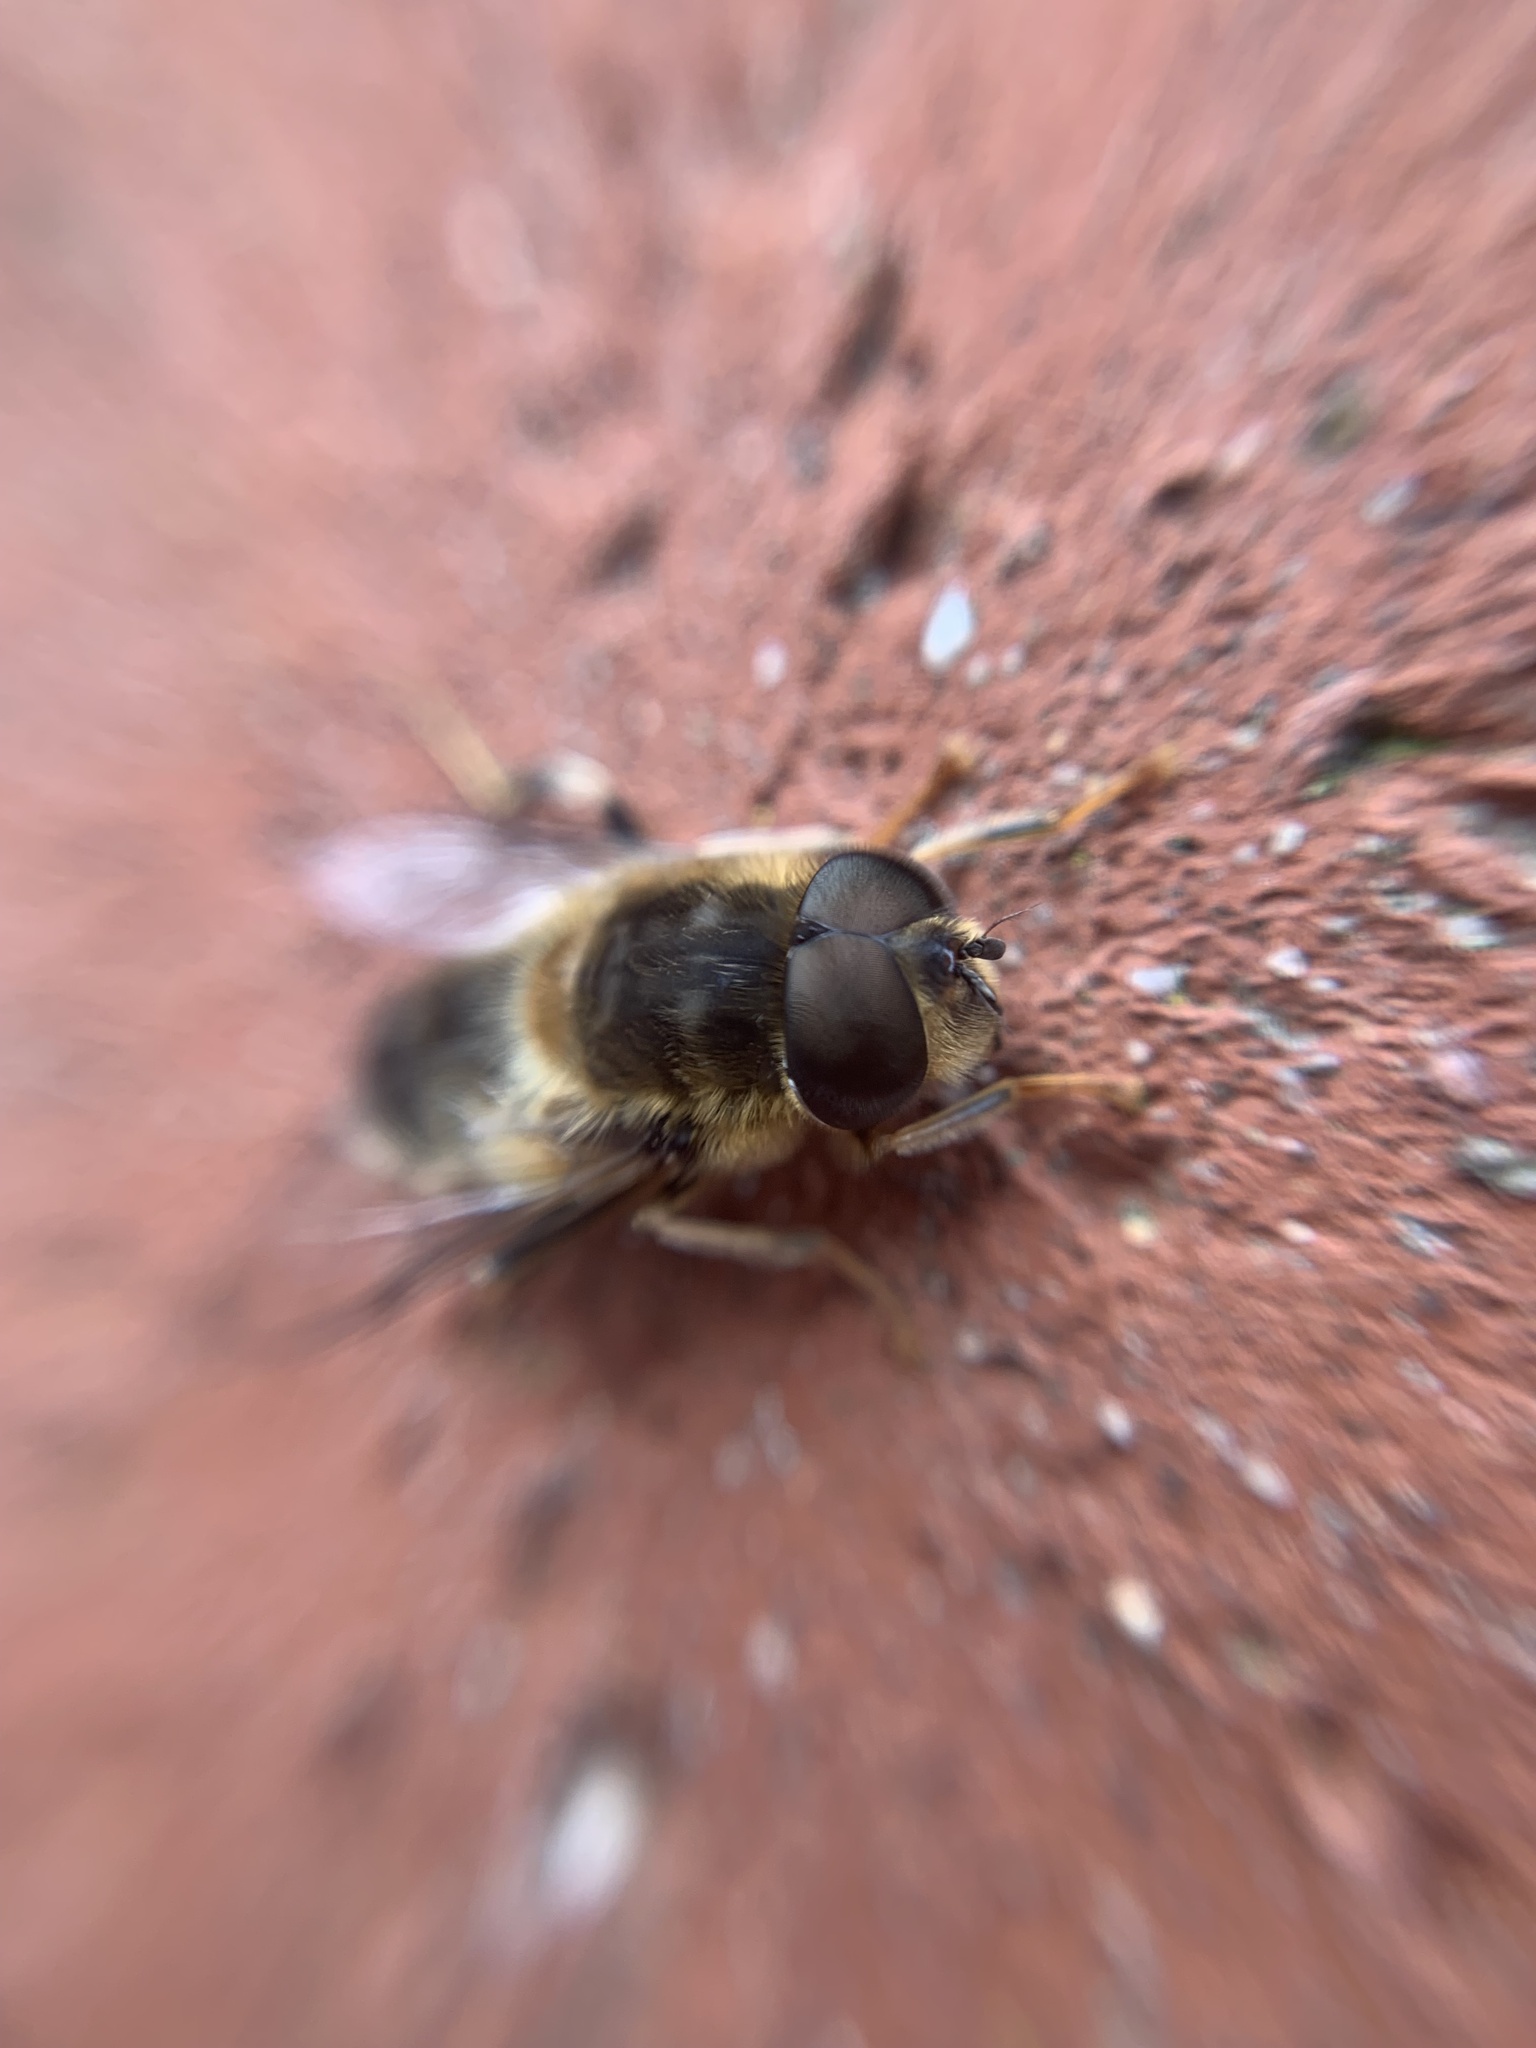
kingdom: Animalia
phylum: Arthropoda
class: Insecta
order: Diptera
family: Syrphidae
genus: Eristalis
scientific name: Eristalis pertinax
